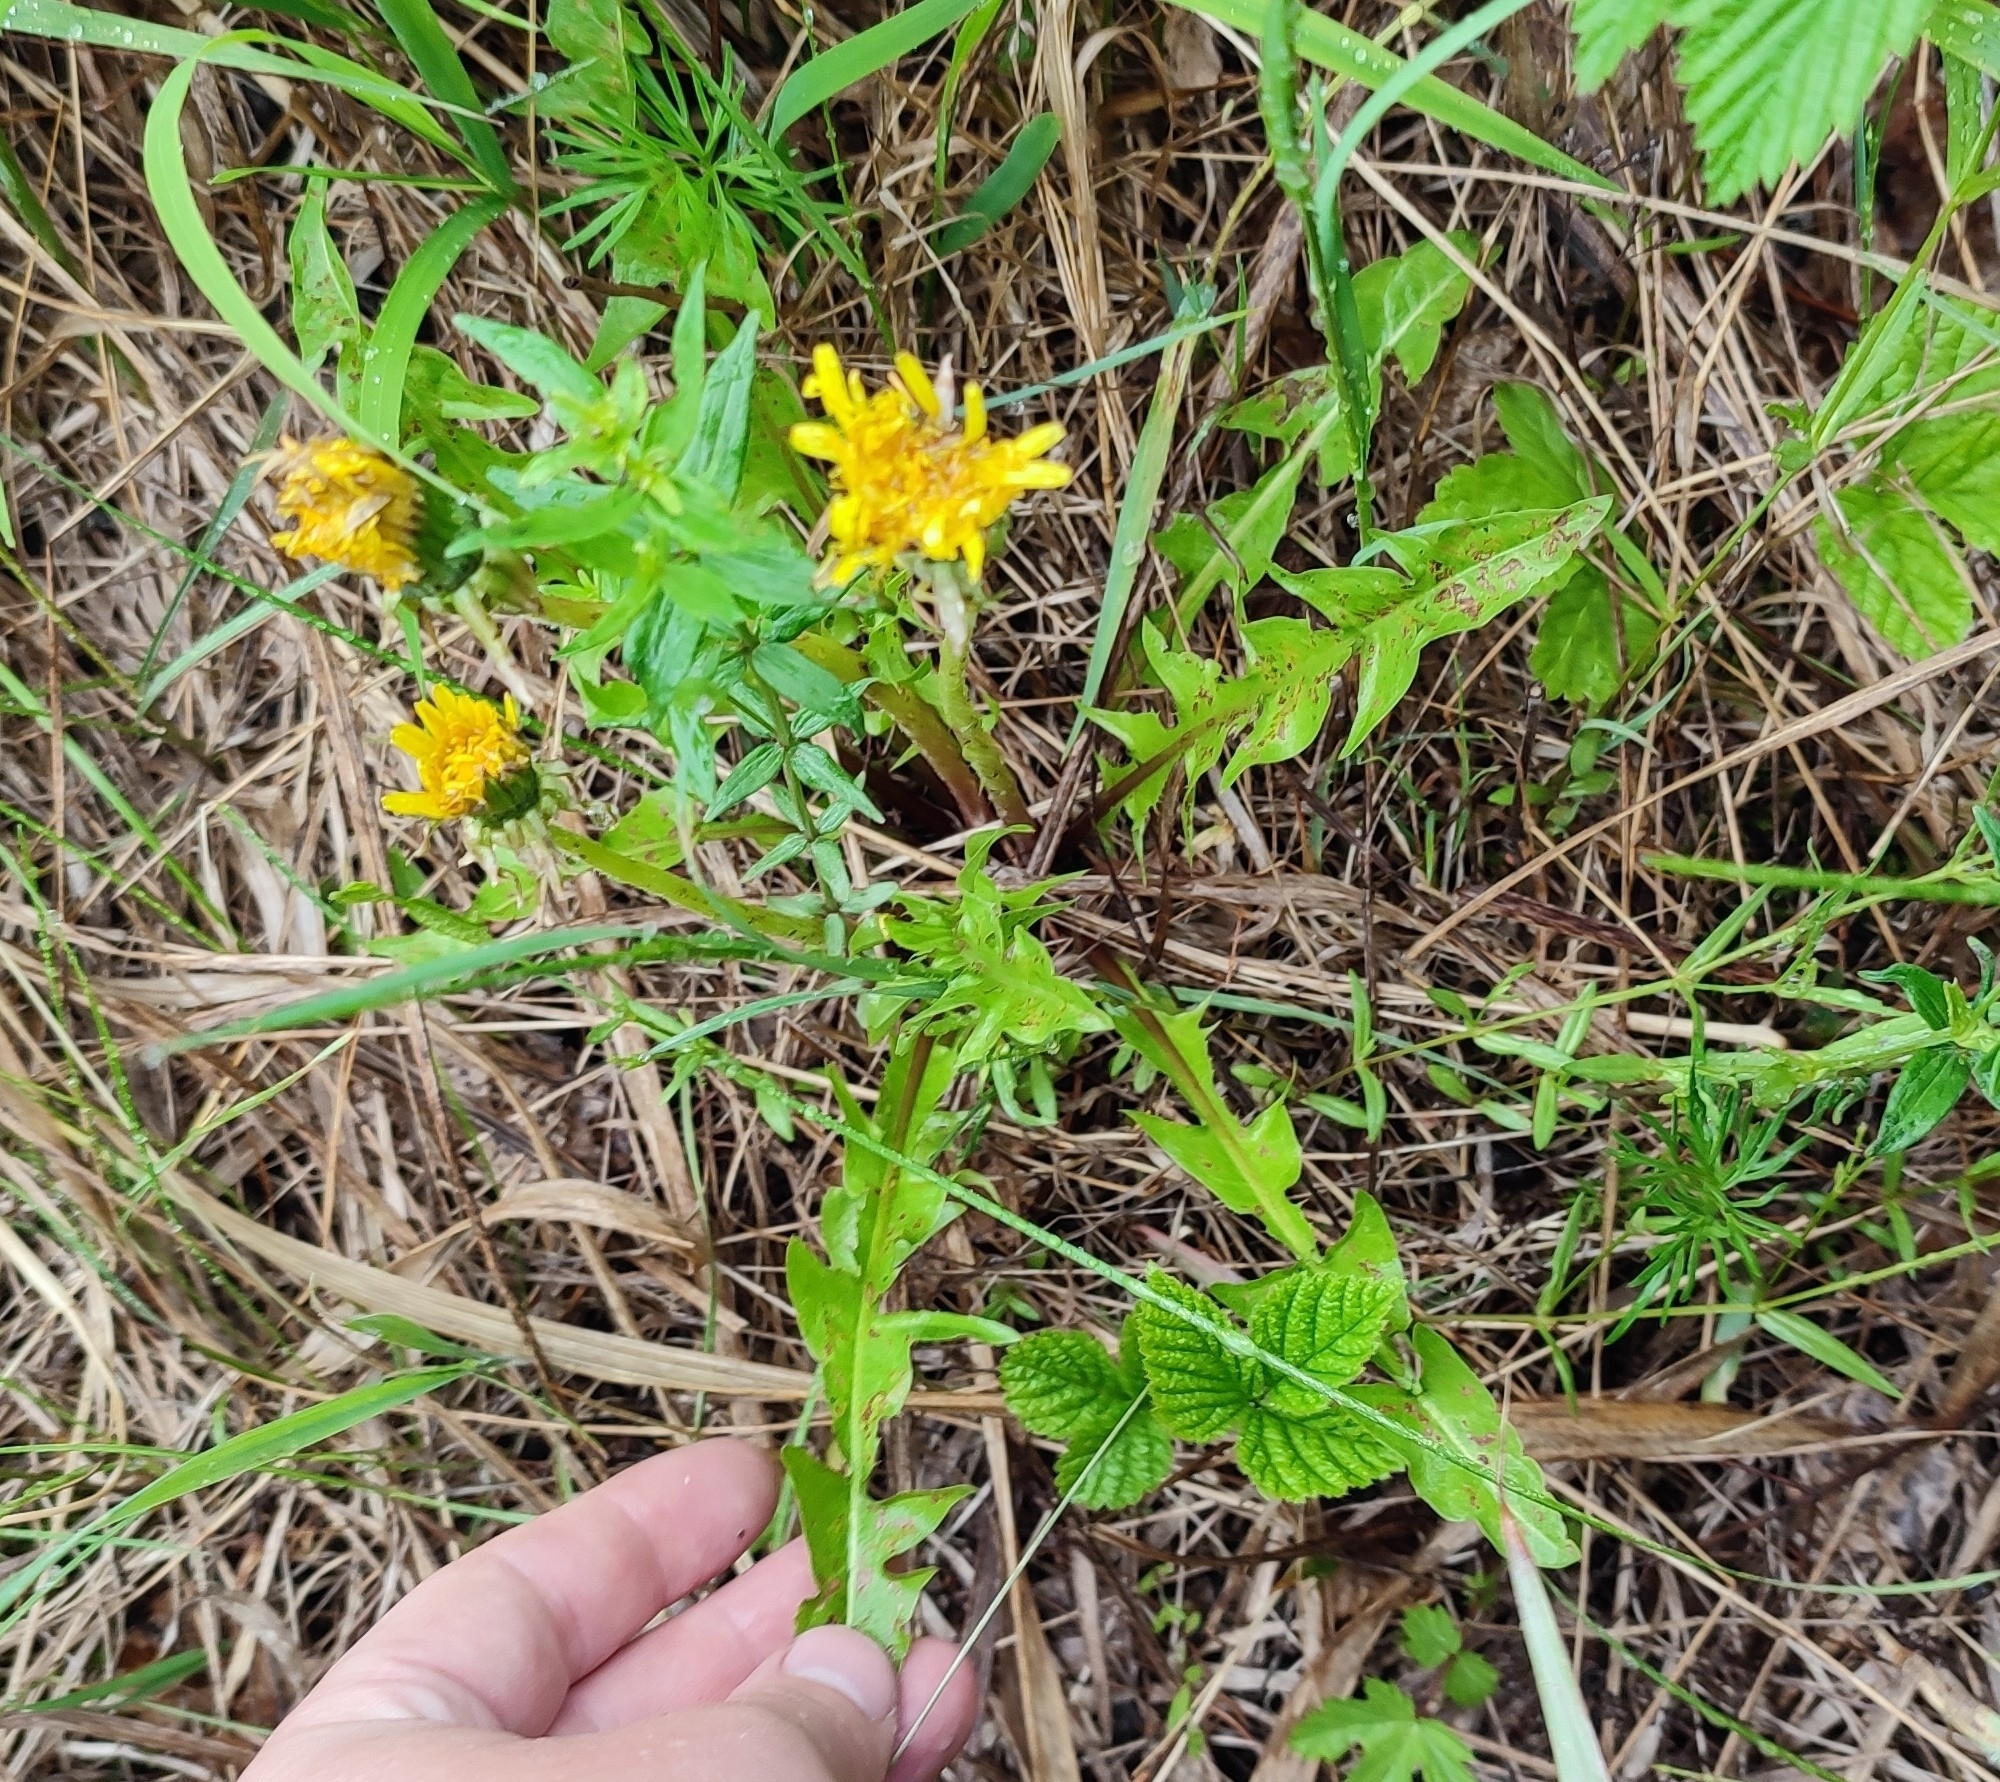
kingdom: Plantae
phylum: Tracheophyta
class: Magnoliopsida
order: Asterales
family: Asteraceae
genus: Taraxacum
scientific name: Taraxacum officinale
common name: Common dandelion
